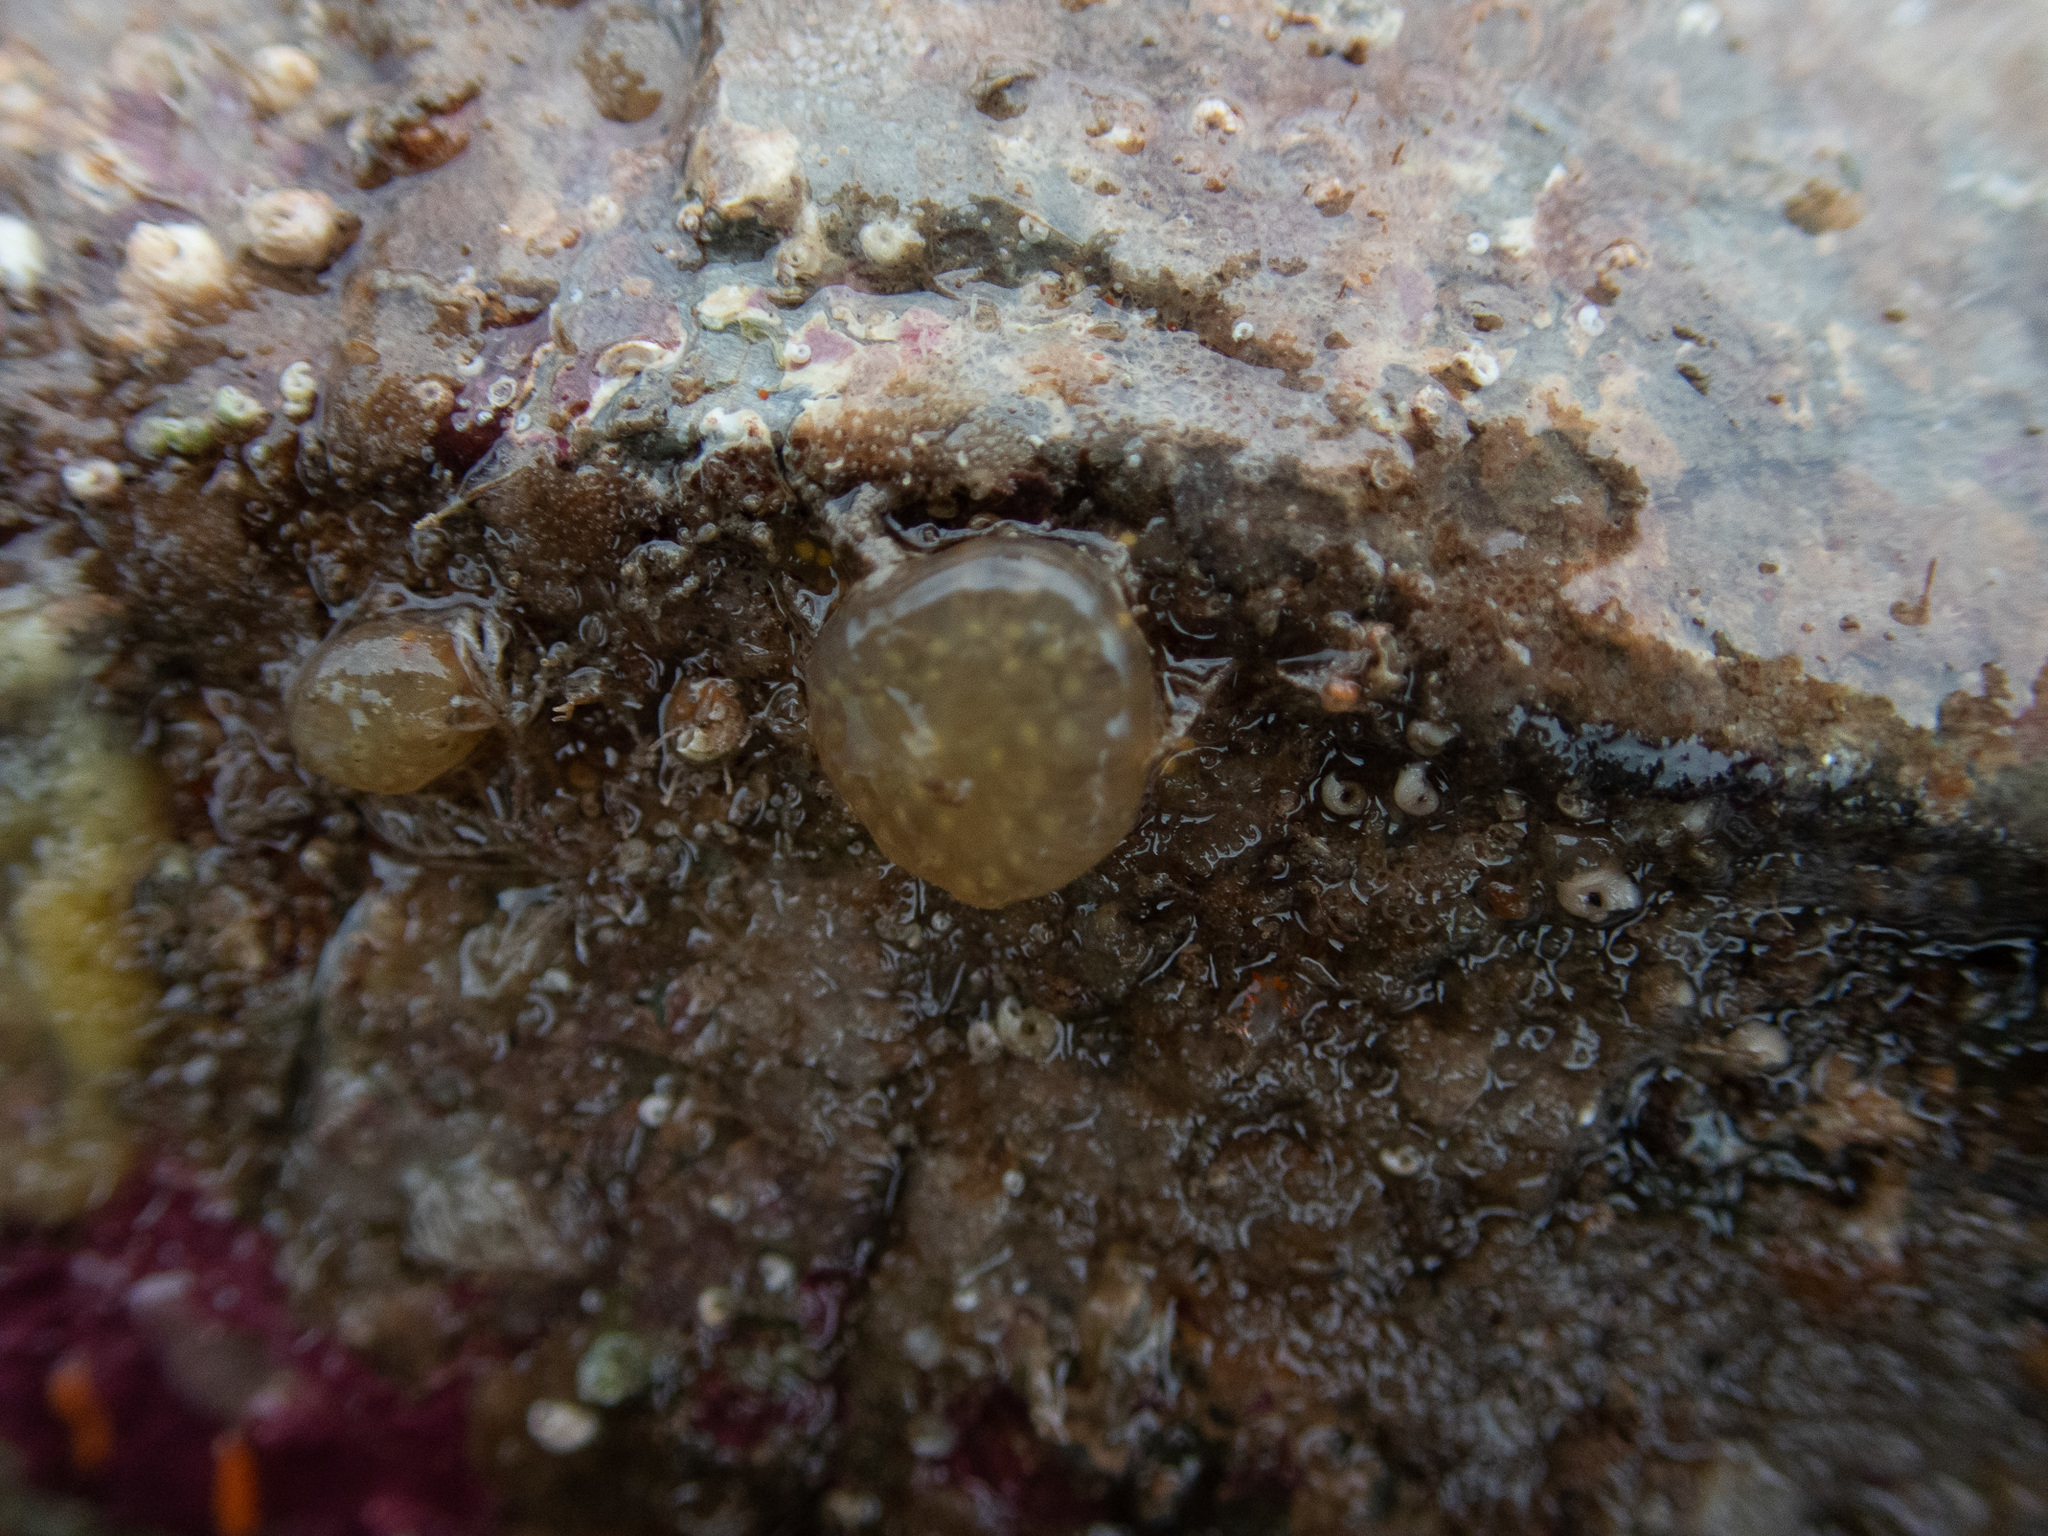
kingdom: Animalia
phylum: Chordata
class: Ascidiacea
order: Aplousobranchia
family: Polyclinidae
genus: Polyclinum
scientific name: Polyclinum aurantium
